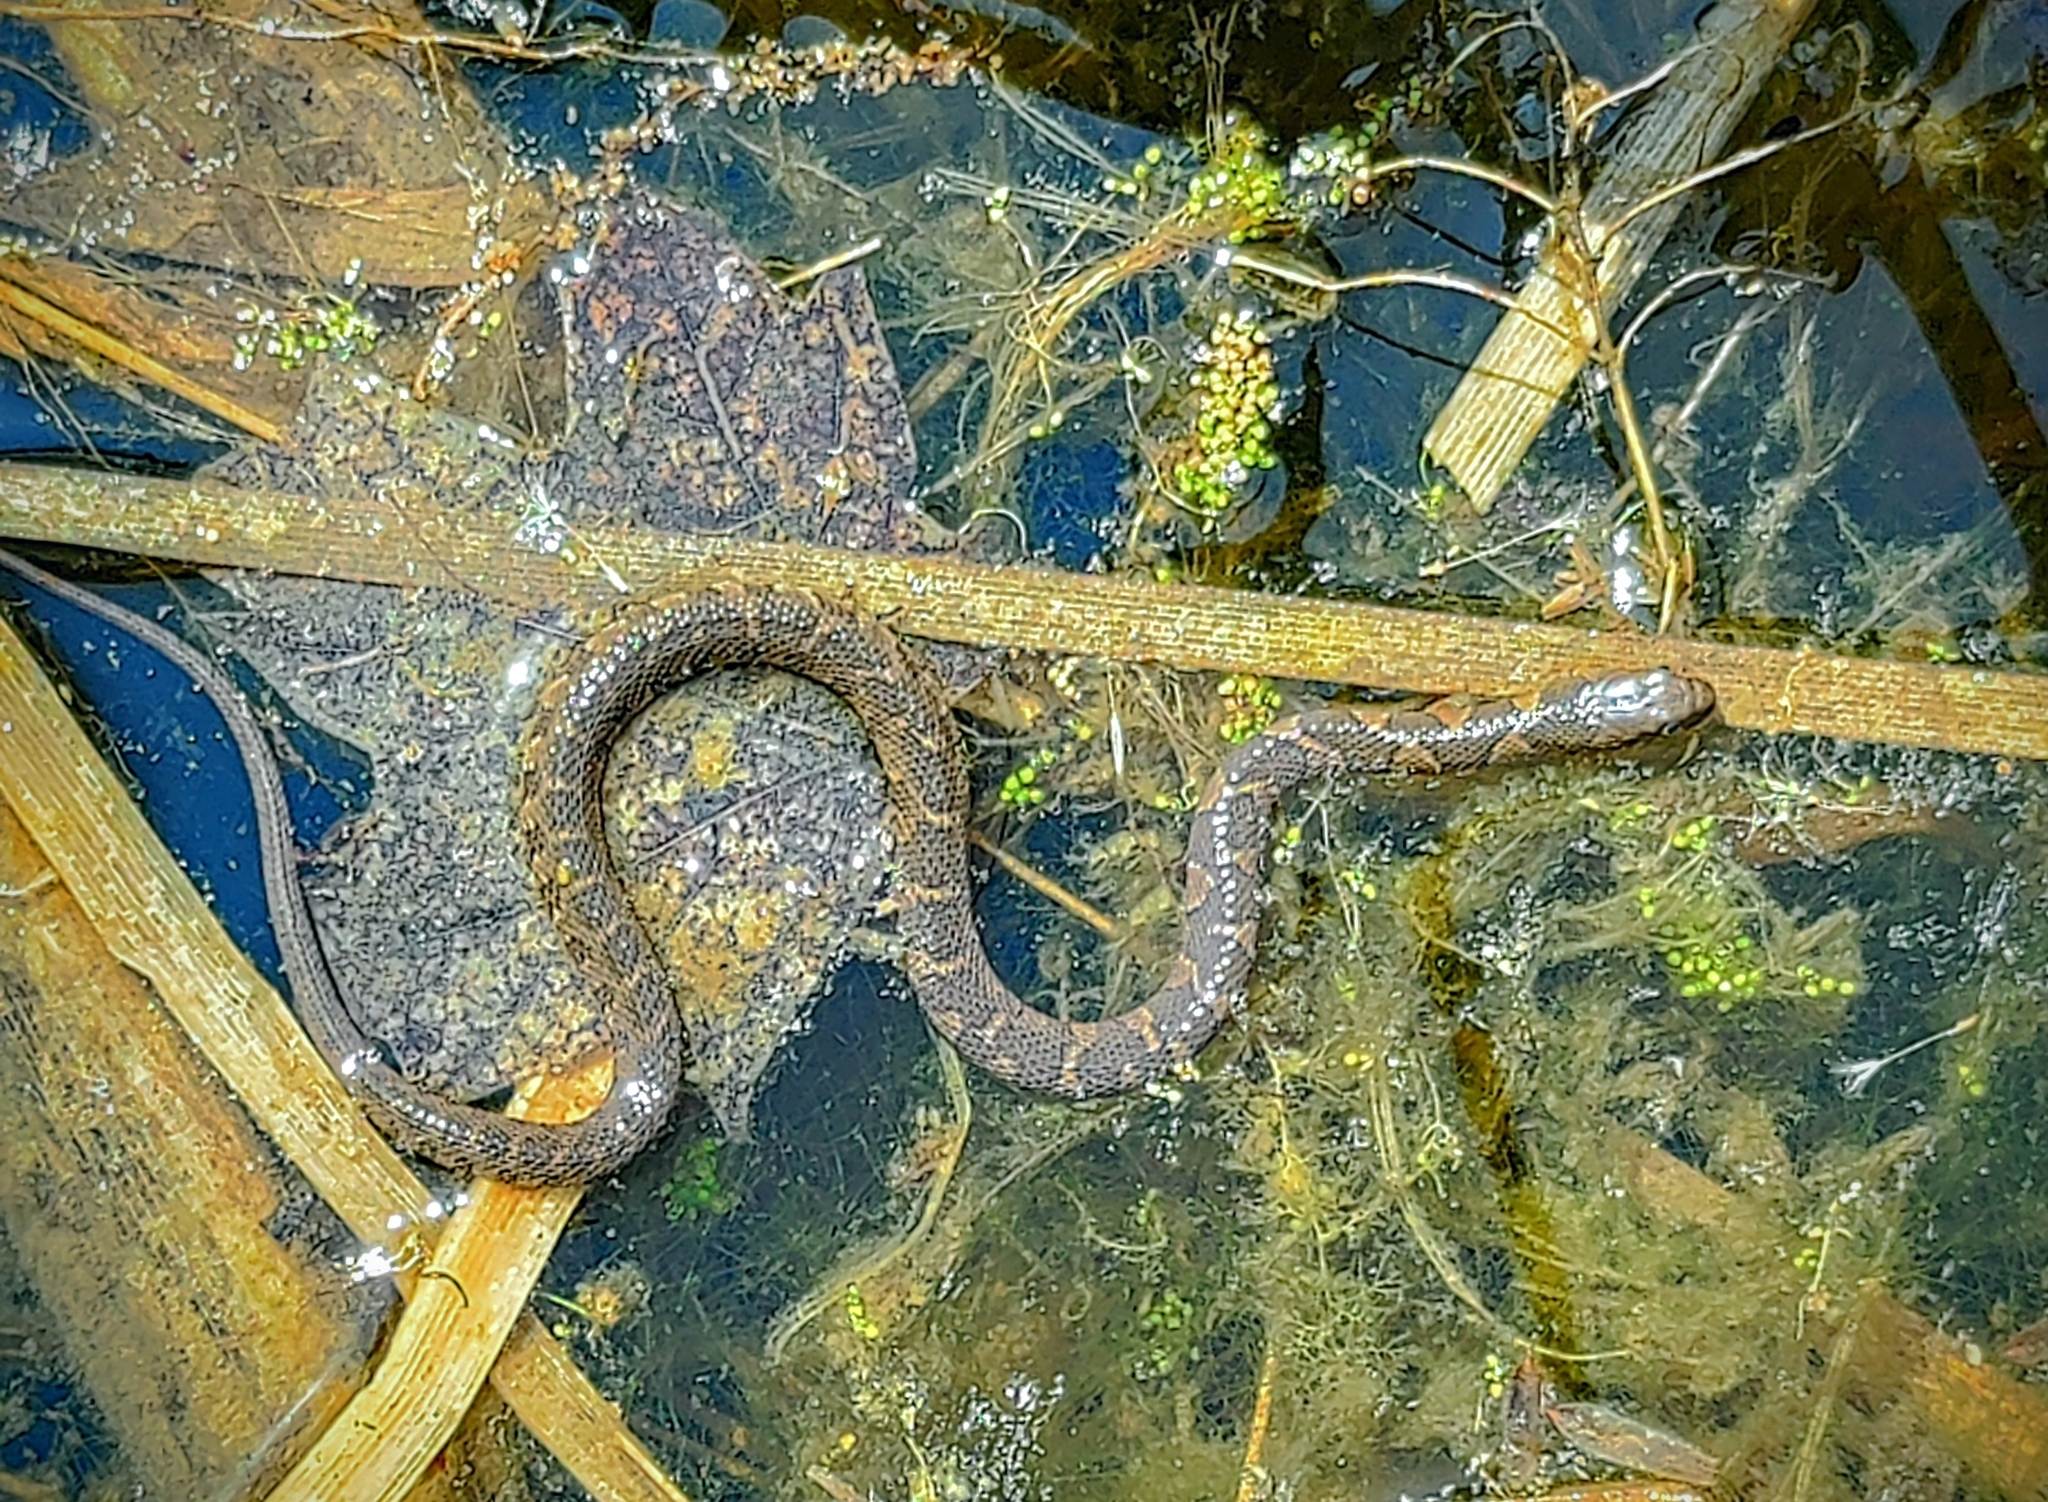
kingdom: Animalia
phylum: Chordata
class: Squamata
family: Colubridae
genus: Nerodia
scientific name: Nerodia sipedon
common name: Northern water snake
